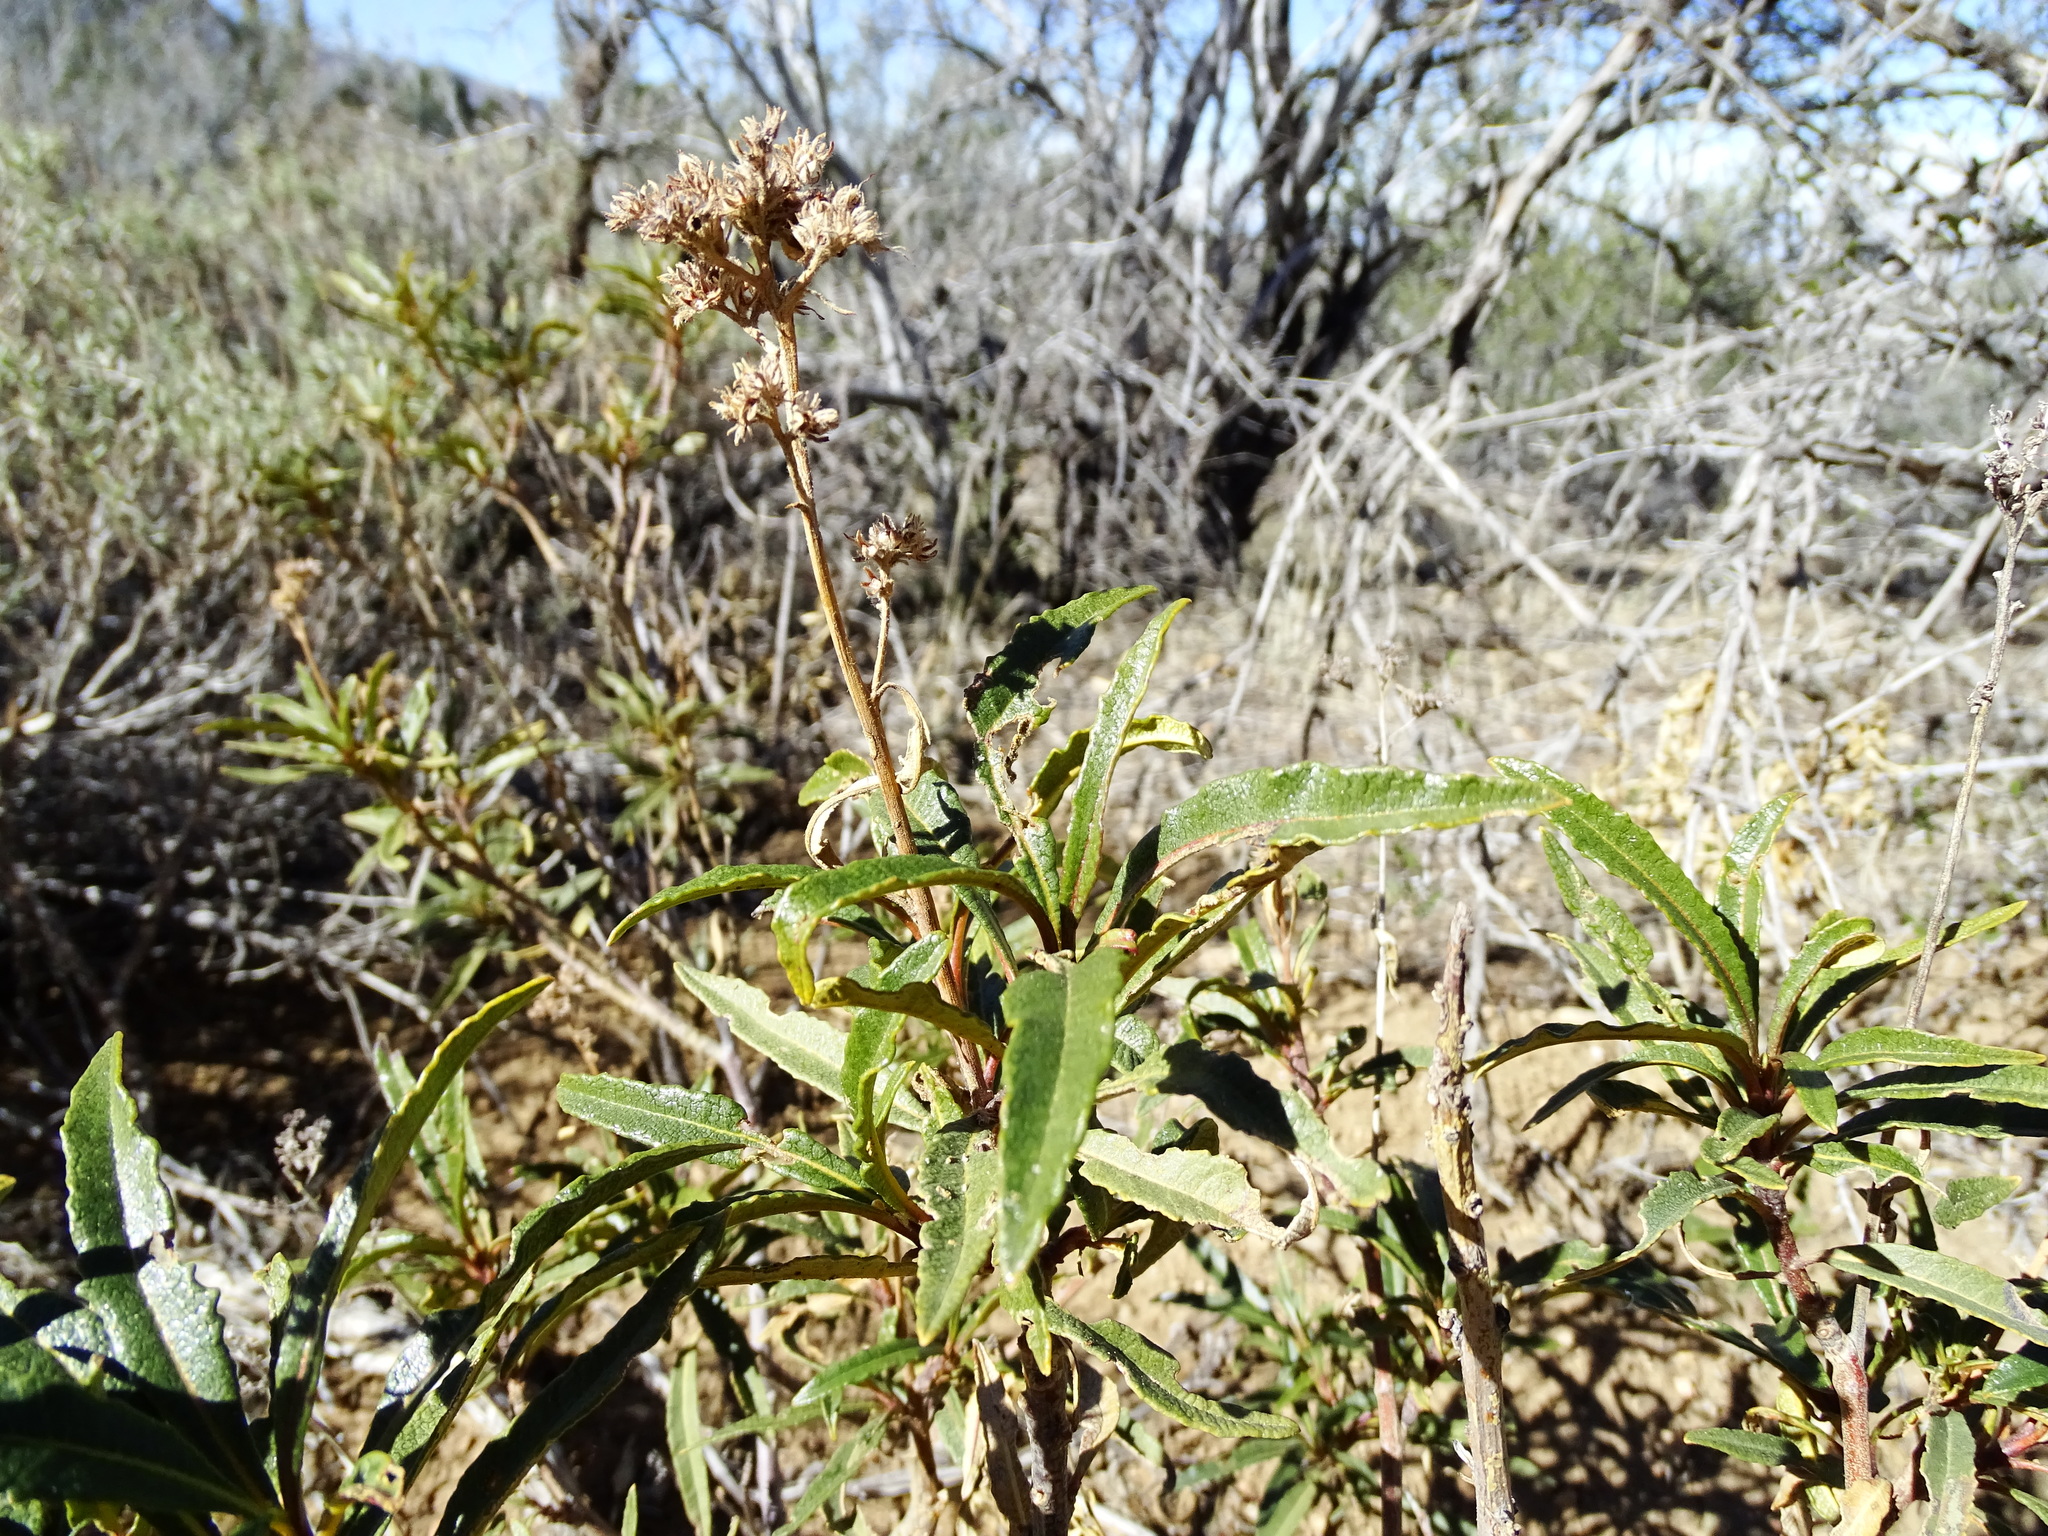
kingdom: Plantae
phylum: Tracheophyta
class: Magnoliopsida
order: Boraginales
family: Namaceae
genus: Eriodictyon
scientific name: Eriodictyon trichocalyx
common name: Hairy yerba-santa
